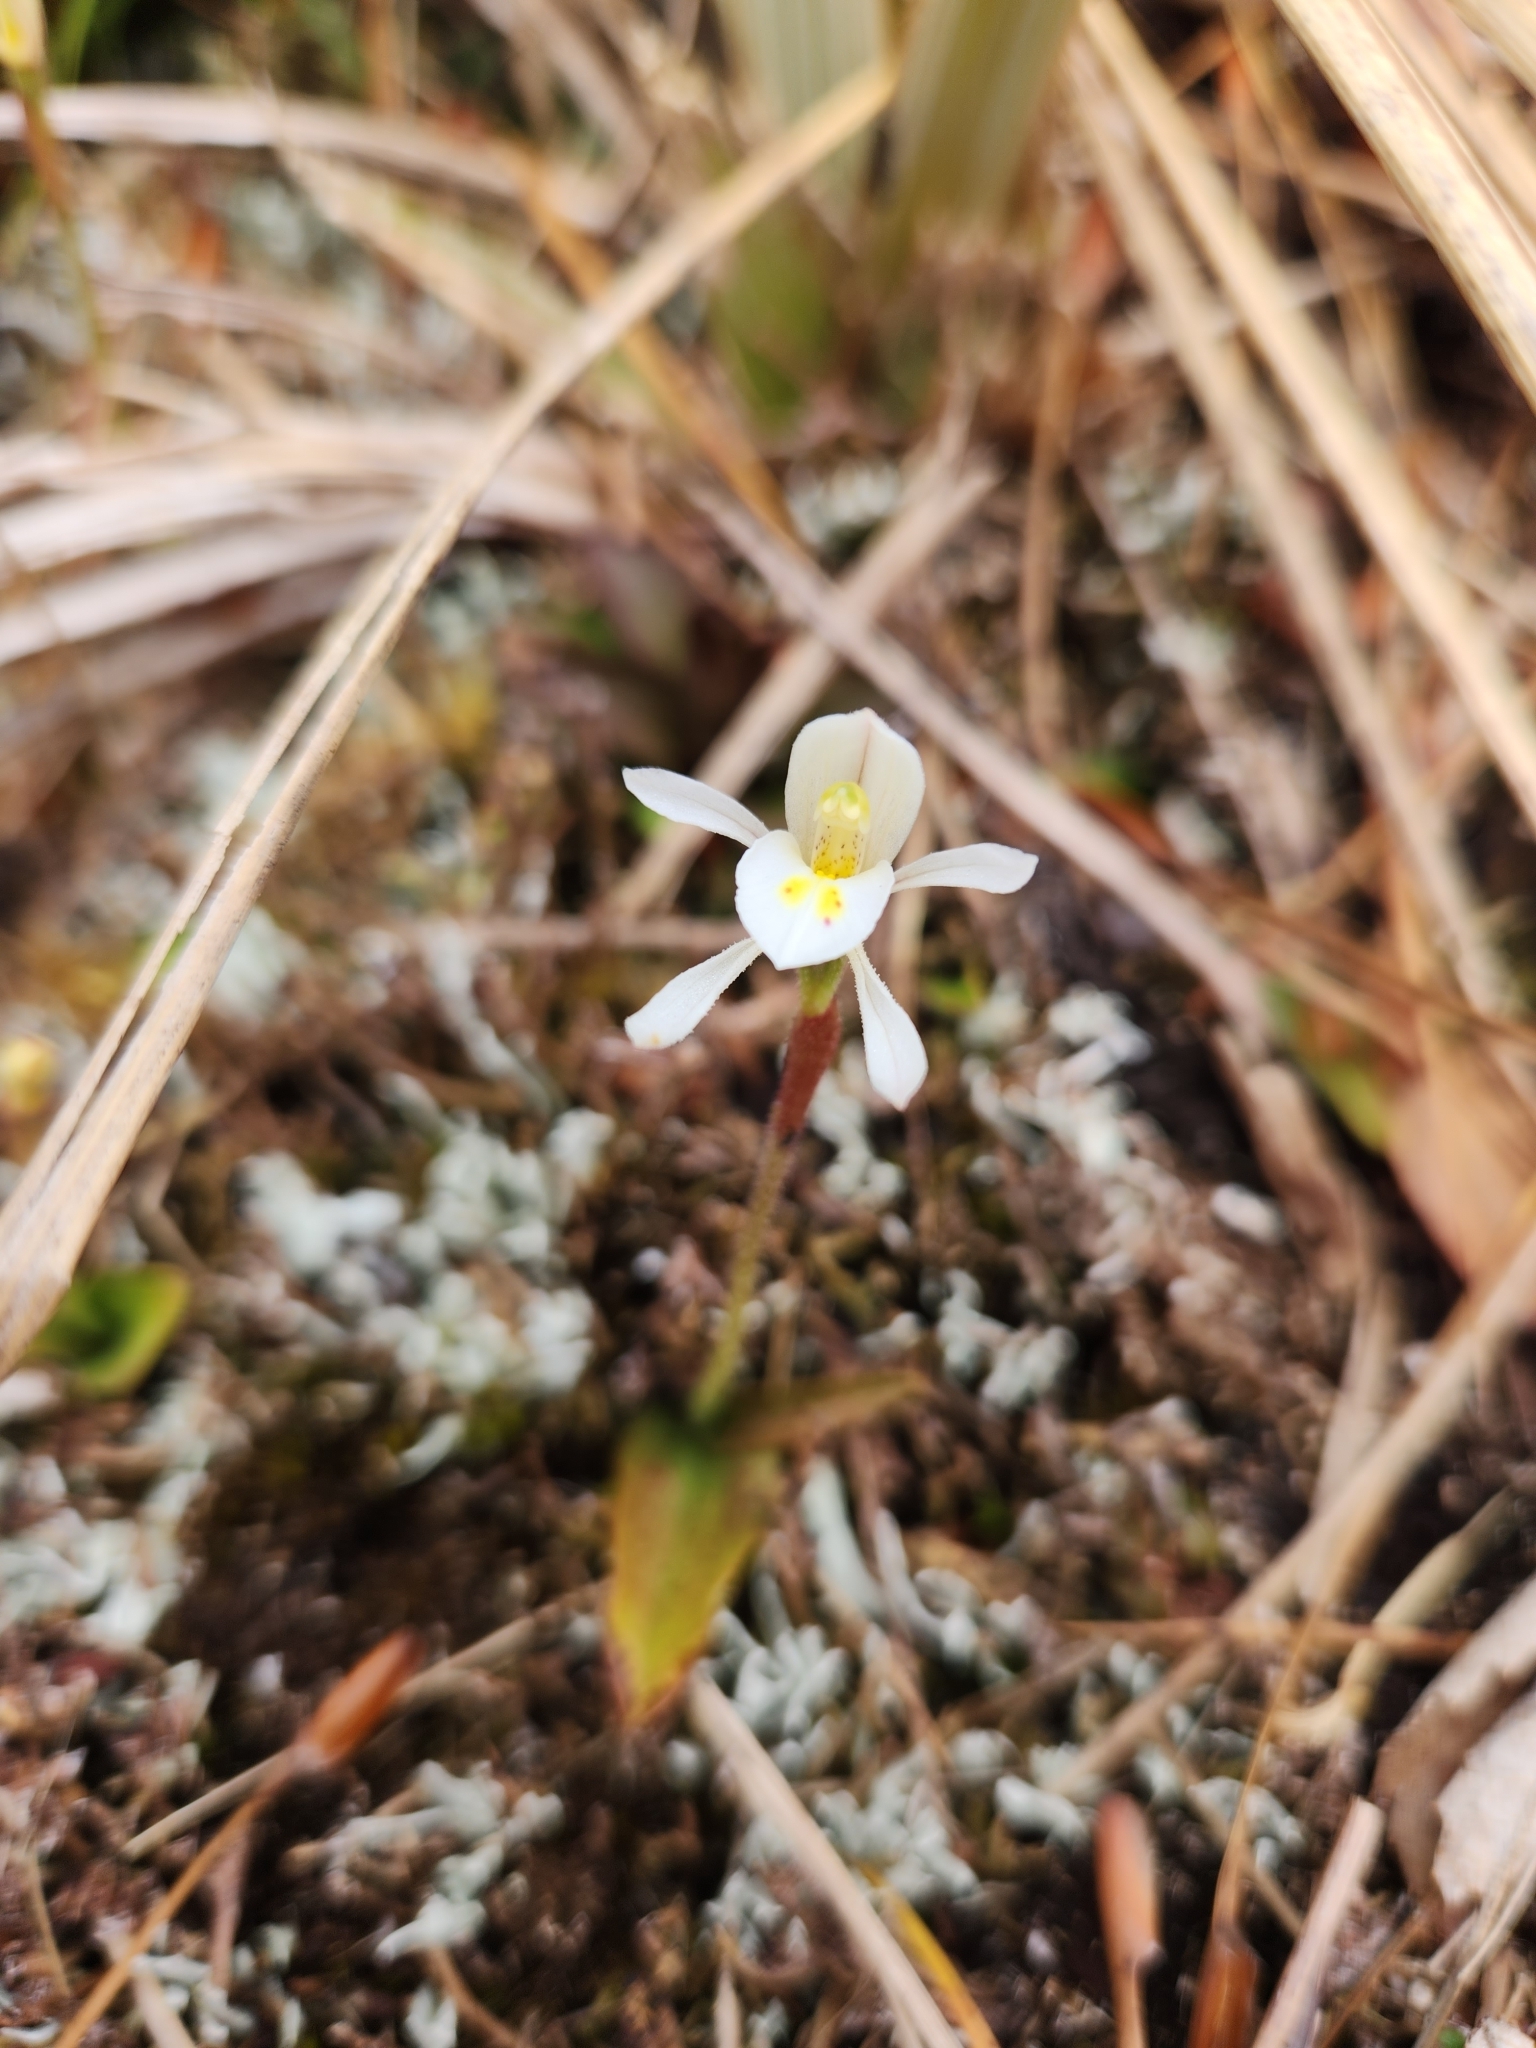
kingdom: Plantae
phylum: Tracheophyta
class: Liliopsida
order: Asparagales
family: Orchidaceae
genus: Aporostylis
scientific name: Aporostylis bifolia
